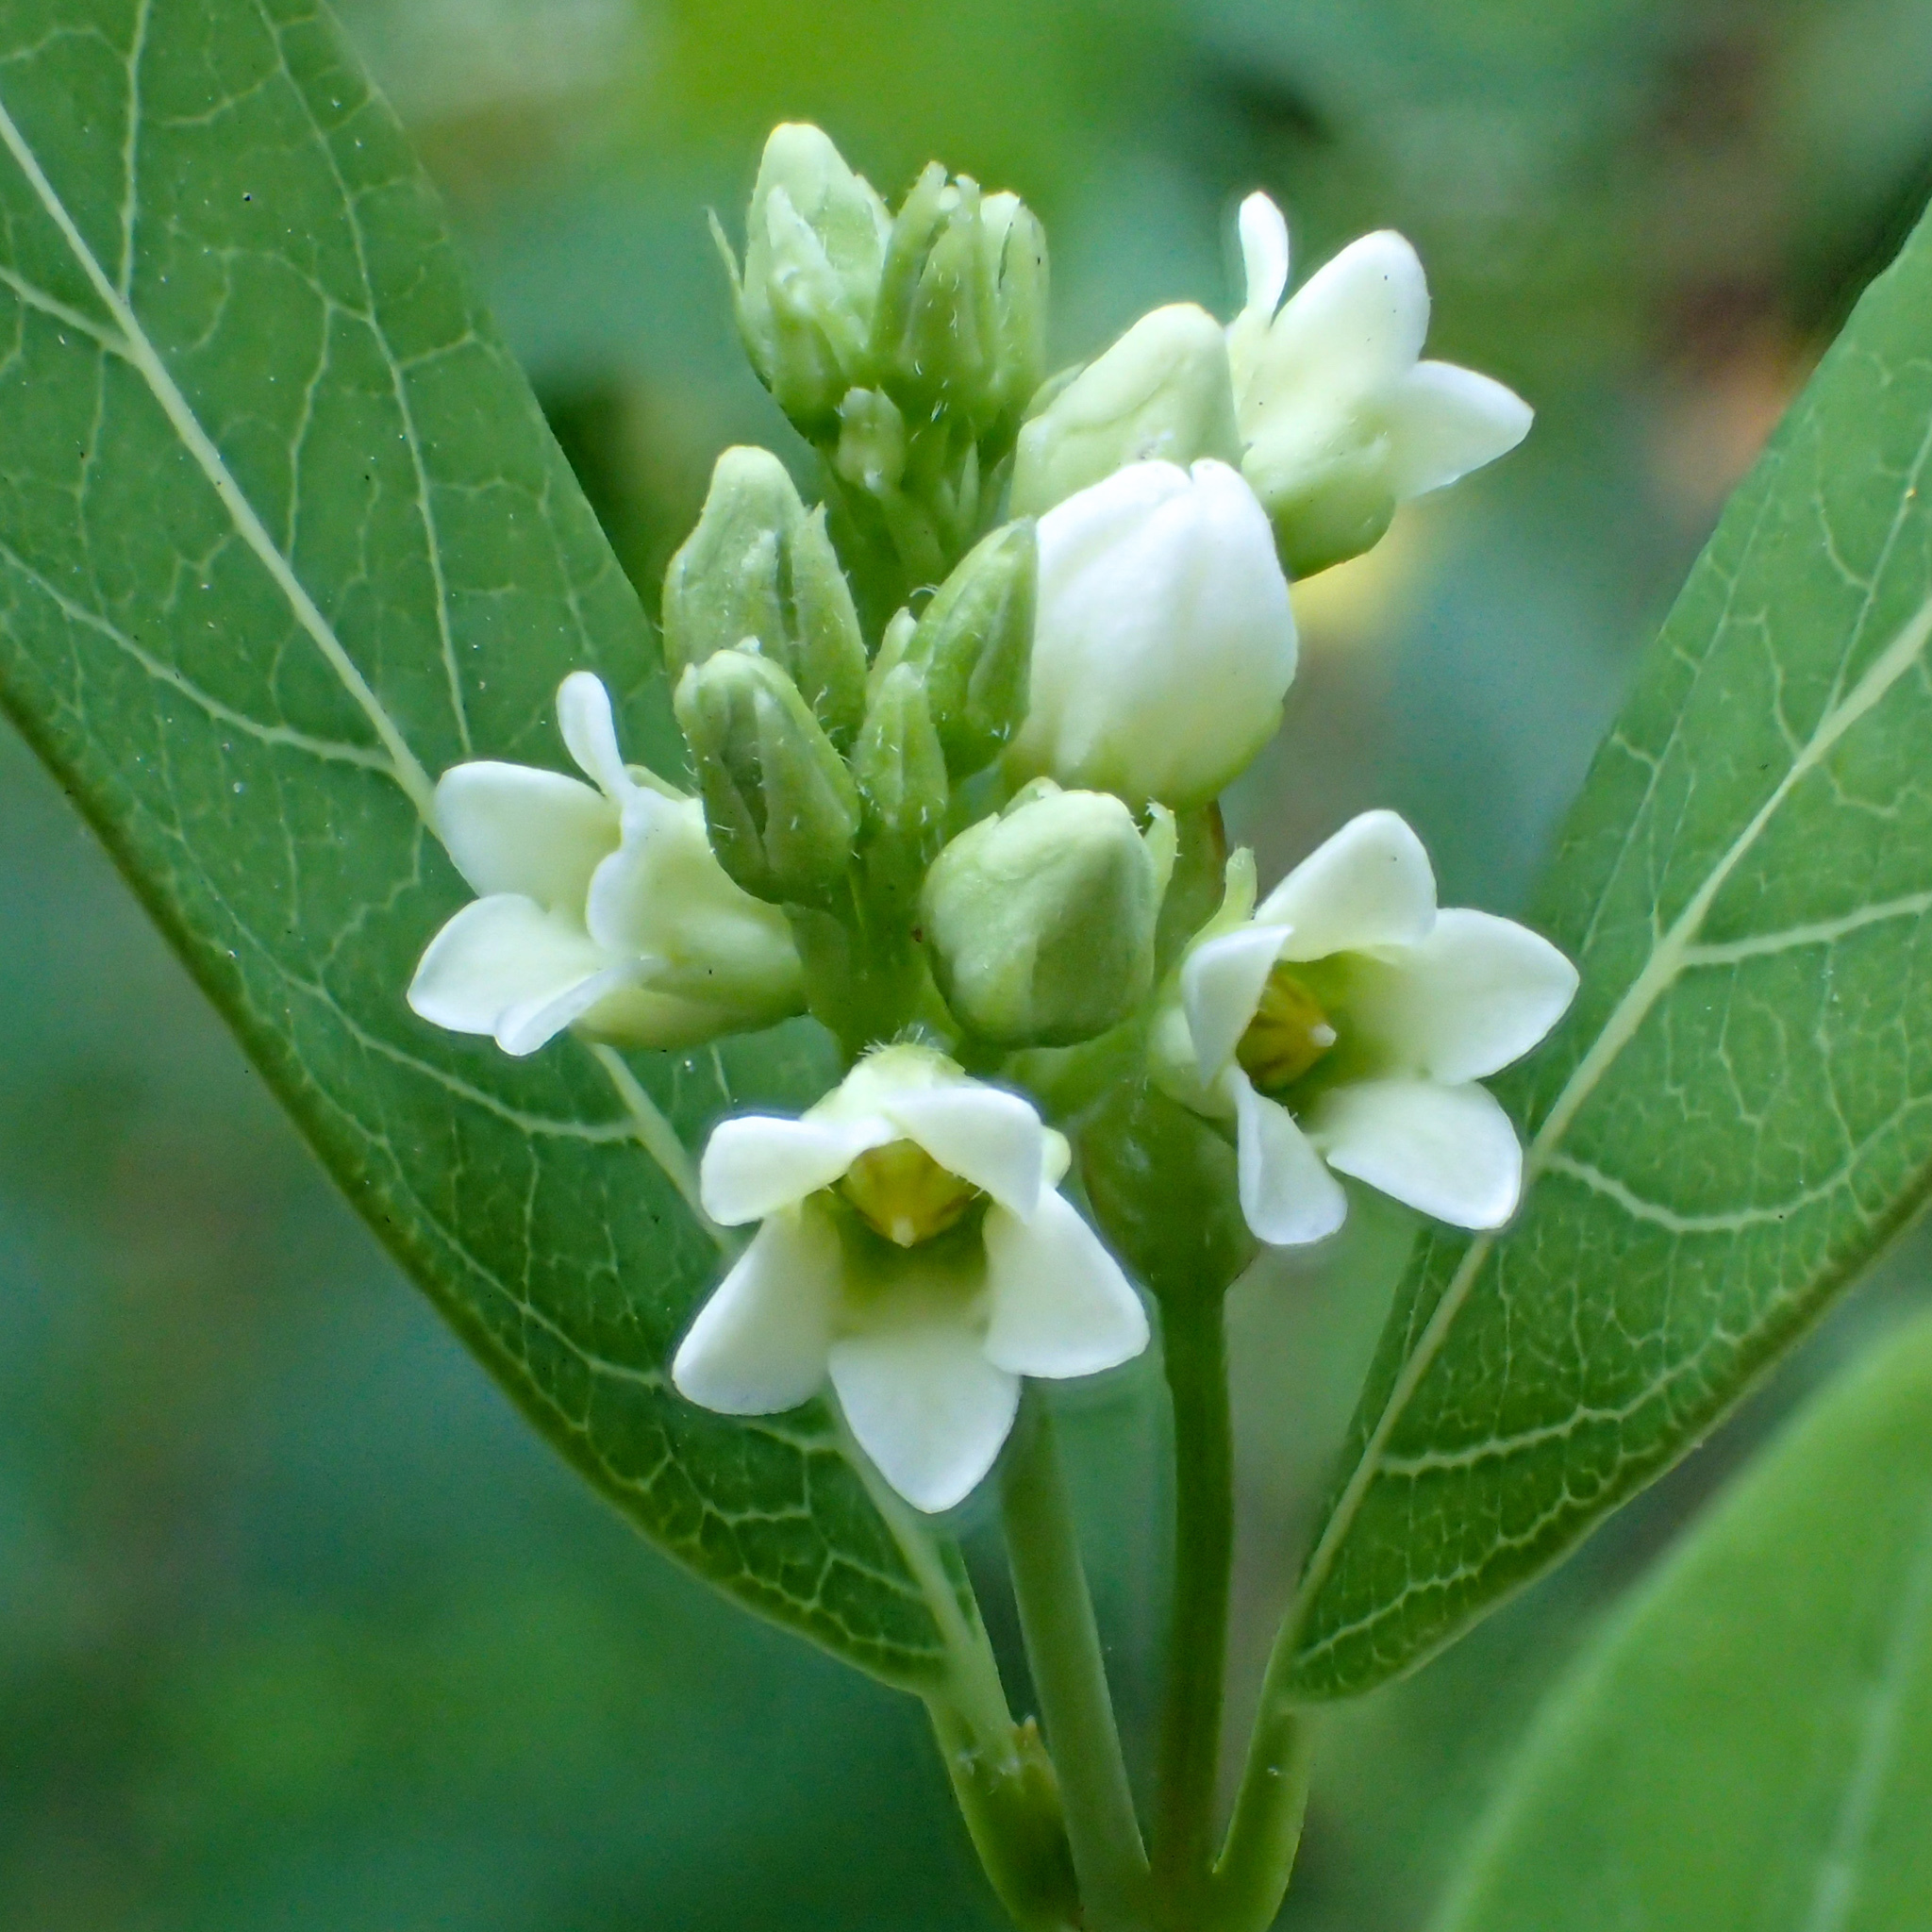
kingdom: Plantae
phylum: Tracheophyta
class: Magnoliopsida
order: Gentianales
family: Apocynaceae
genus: Apocynum
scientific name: Apocynum cannabinum
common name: Hemp dogbane
